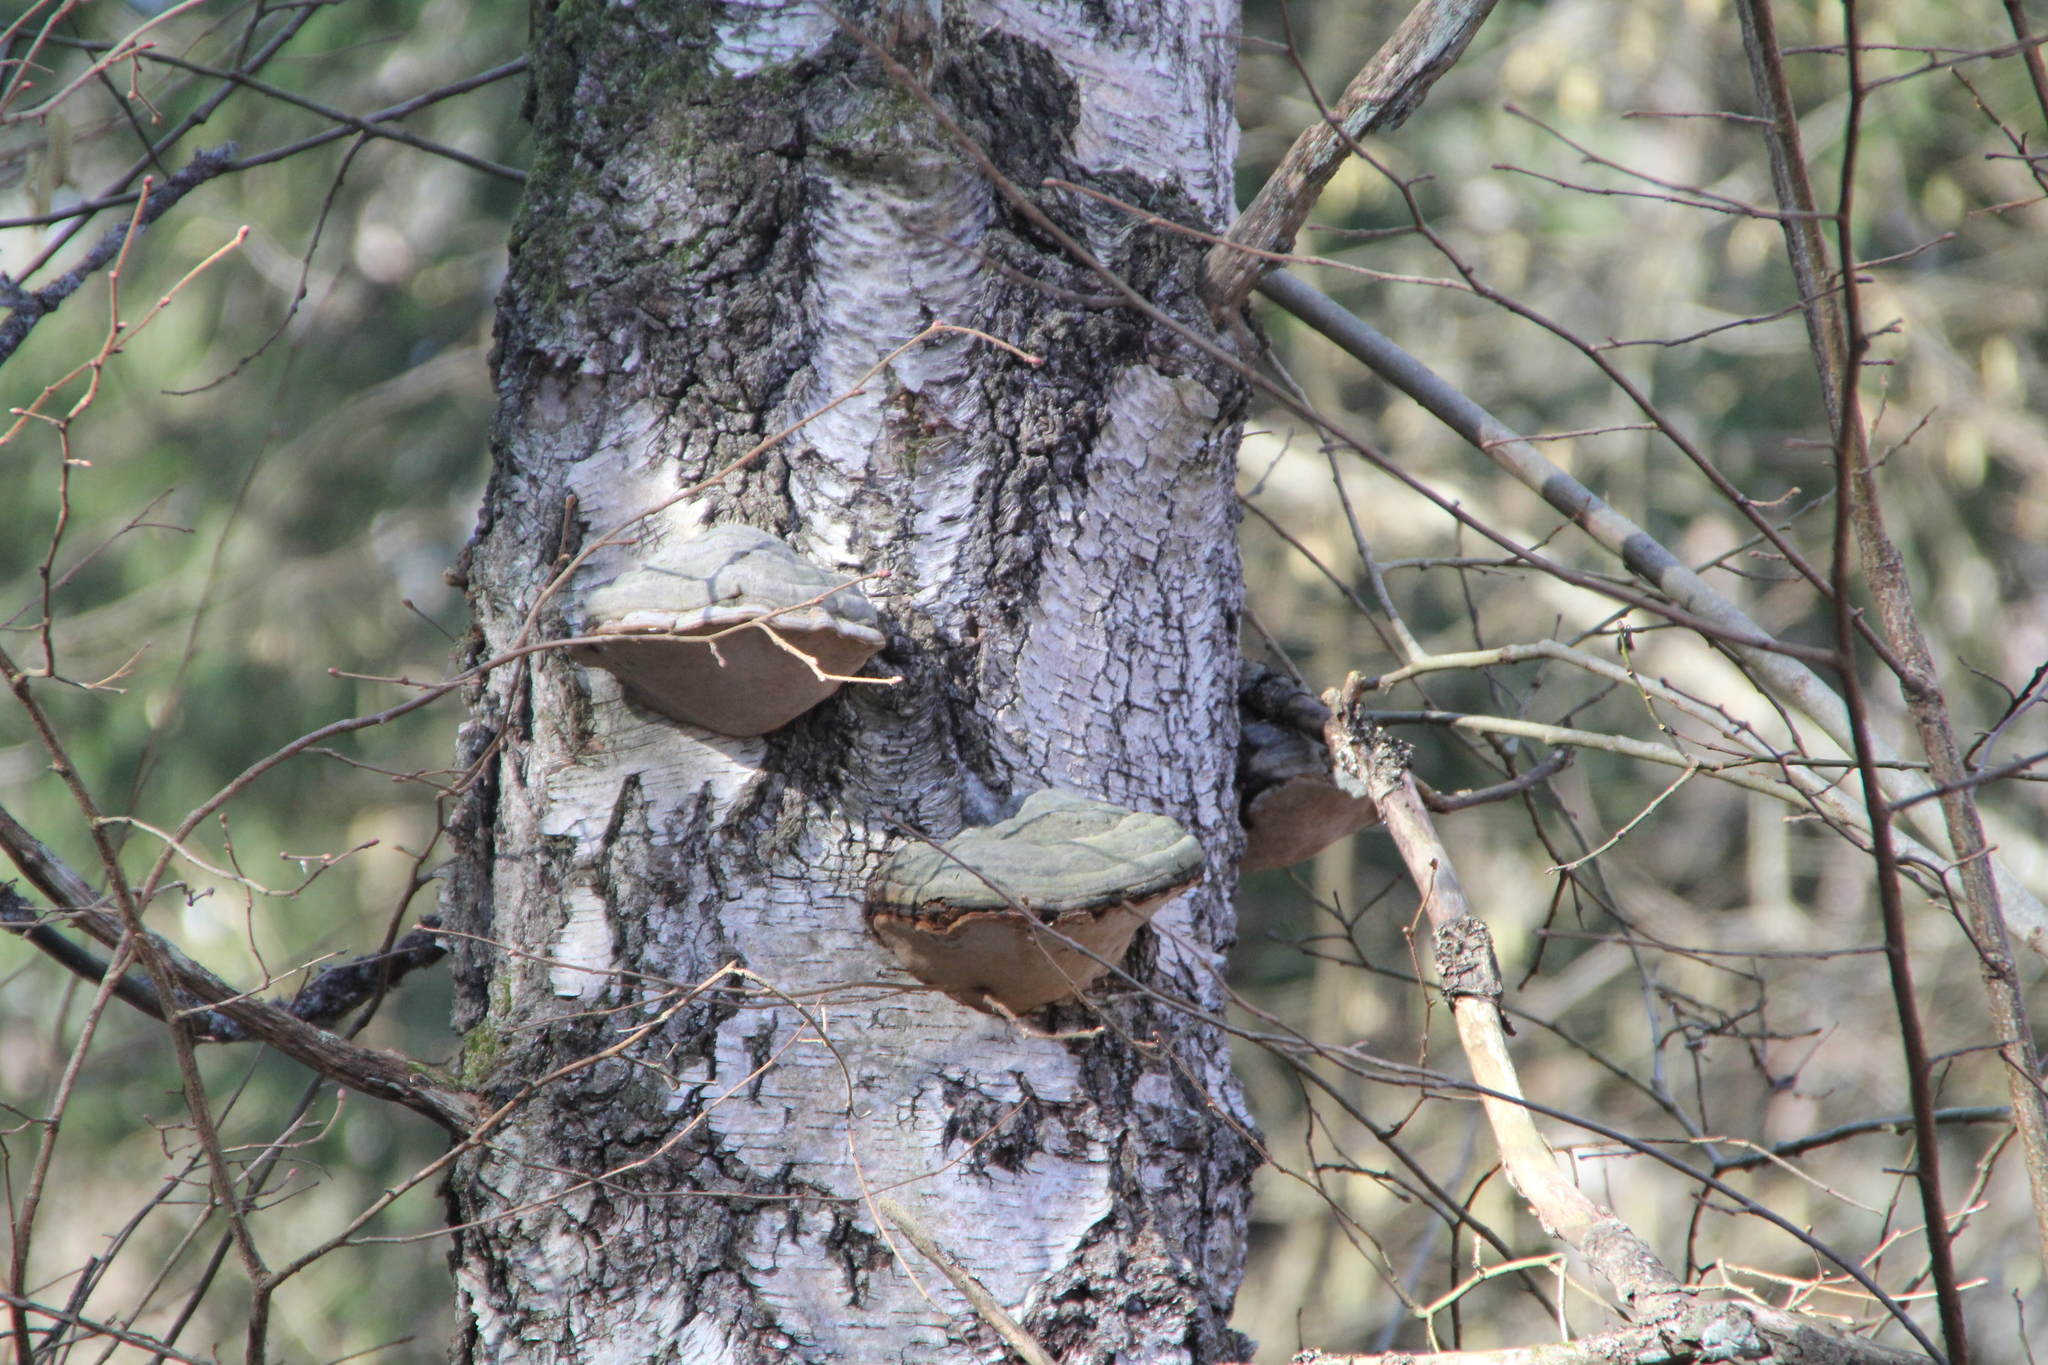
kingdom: Fungi
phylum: Basidiomycota
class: Agaricomycetes
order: Polyporales
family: Polyporaceae
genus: Fomes
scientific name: Fomes fomentarius
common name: Hoof fungus
